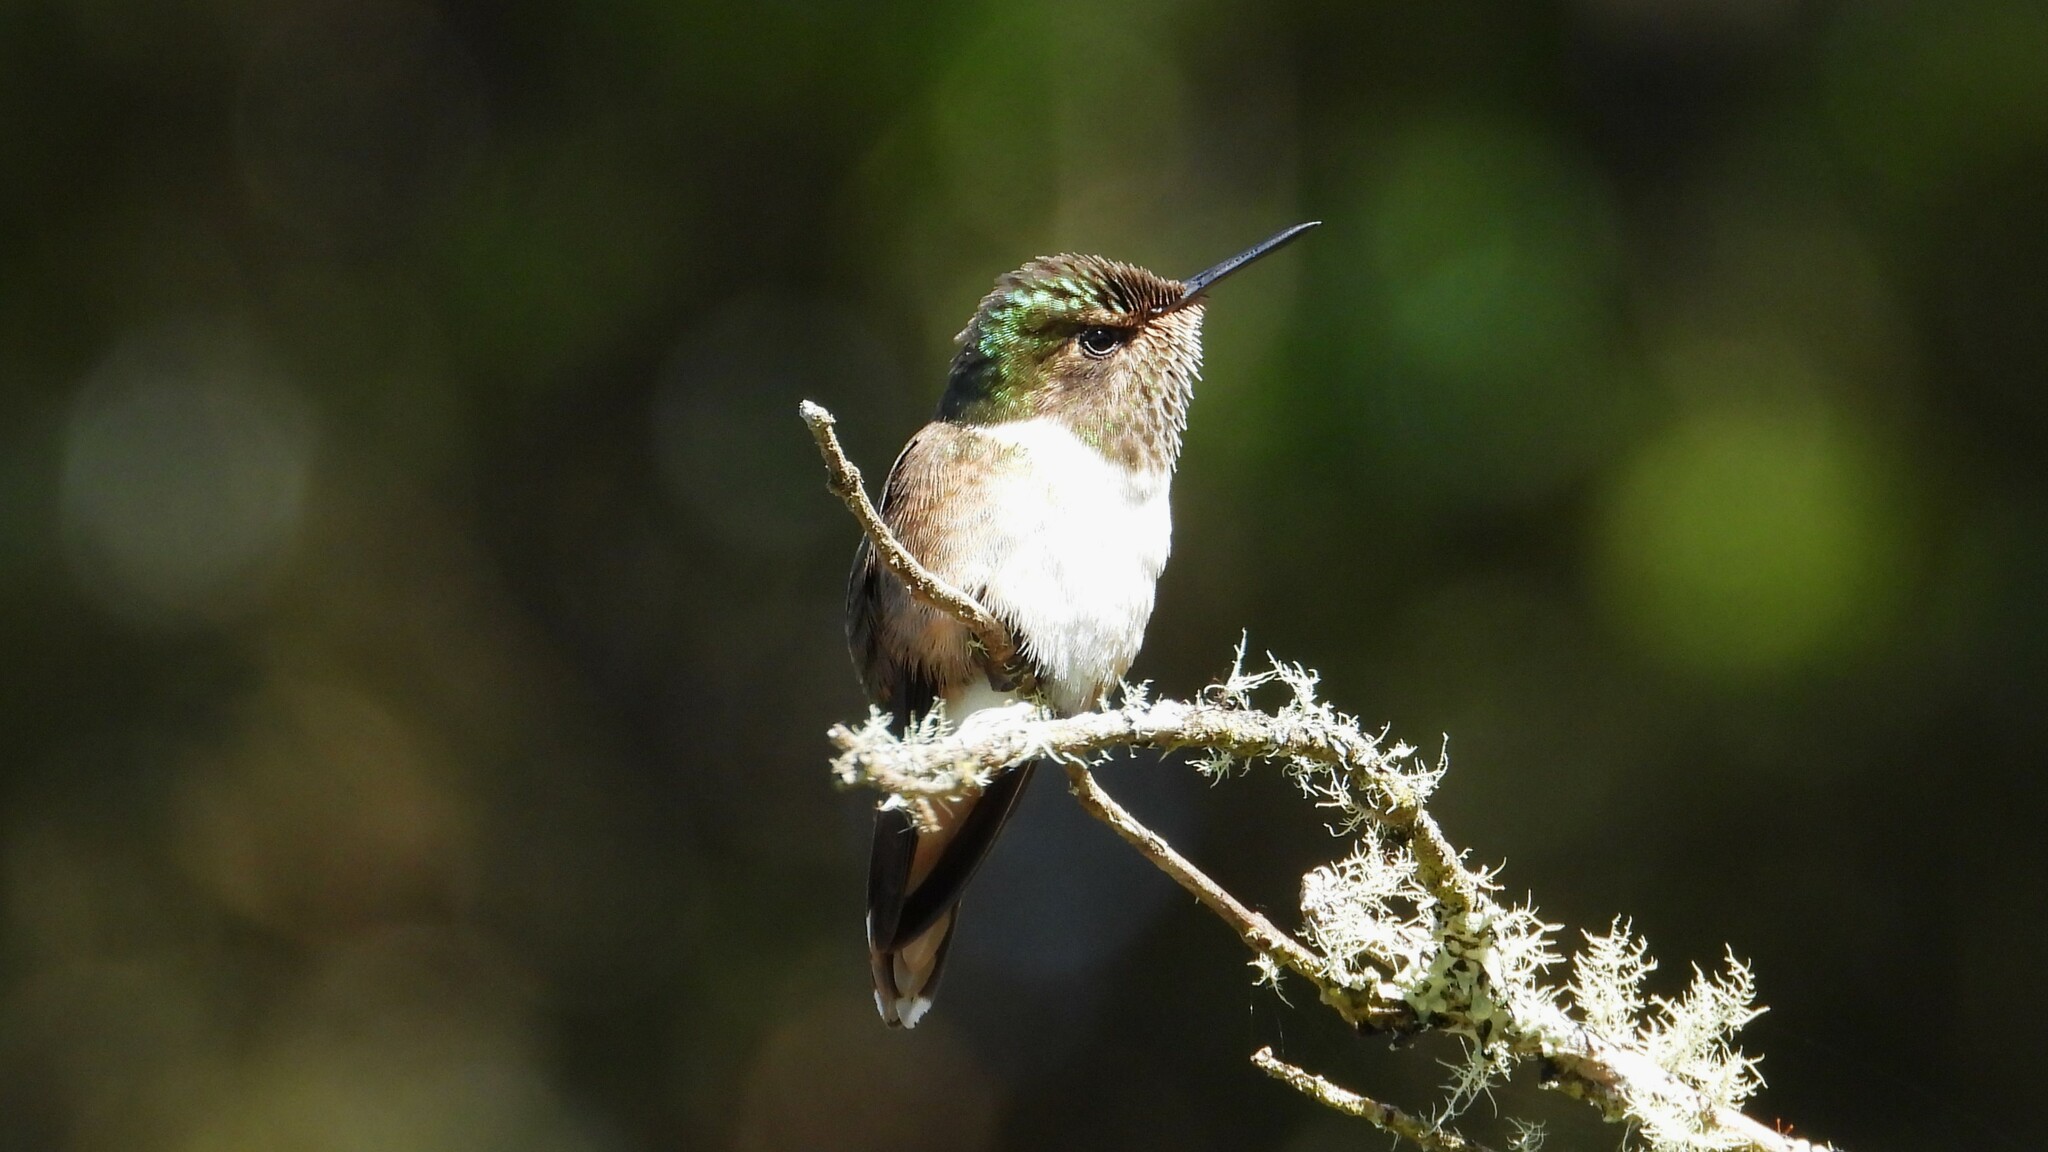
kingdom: Animalia
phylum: Chordata
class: Aves
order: Apodiformes
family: Trochilidae
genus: Selasphorus
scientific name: Selasphorus flammula
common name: Volcano hummingbird
